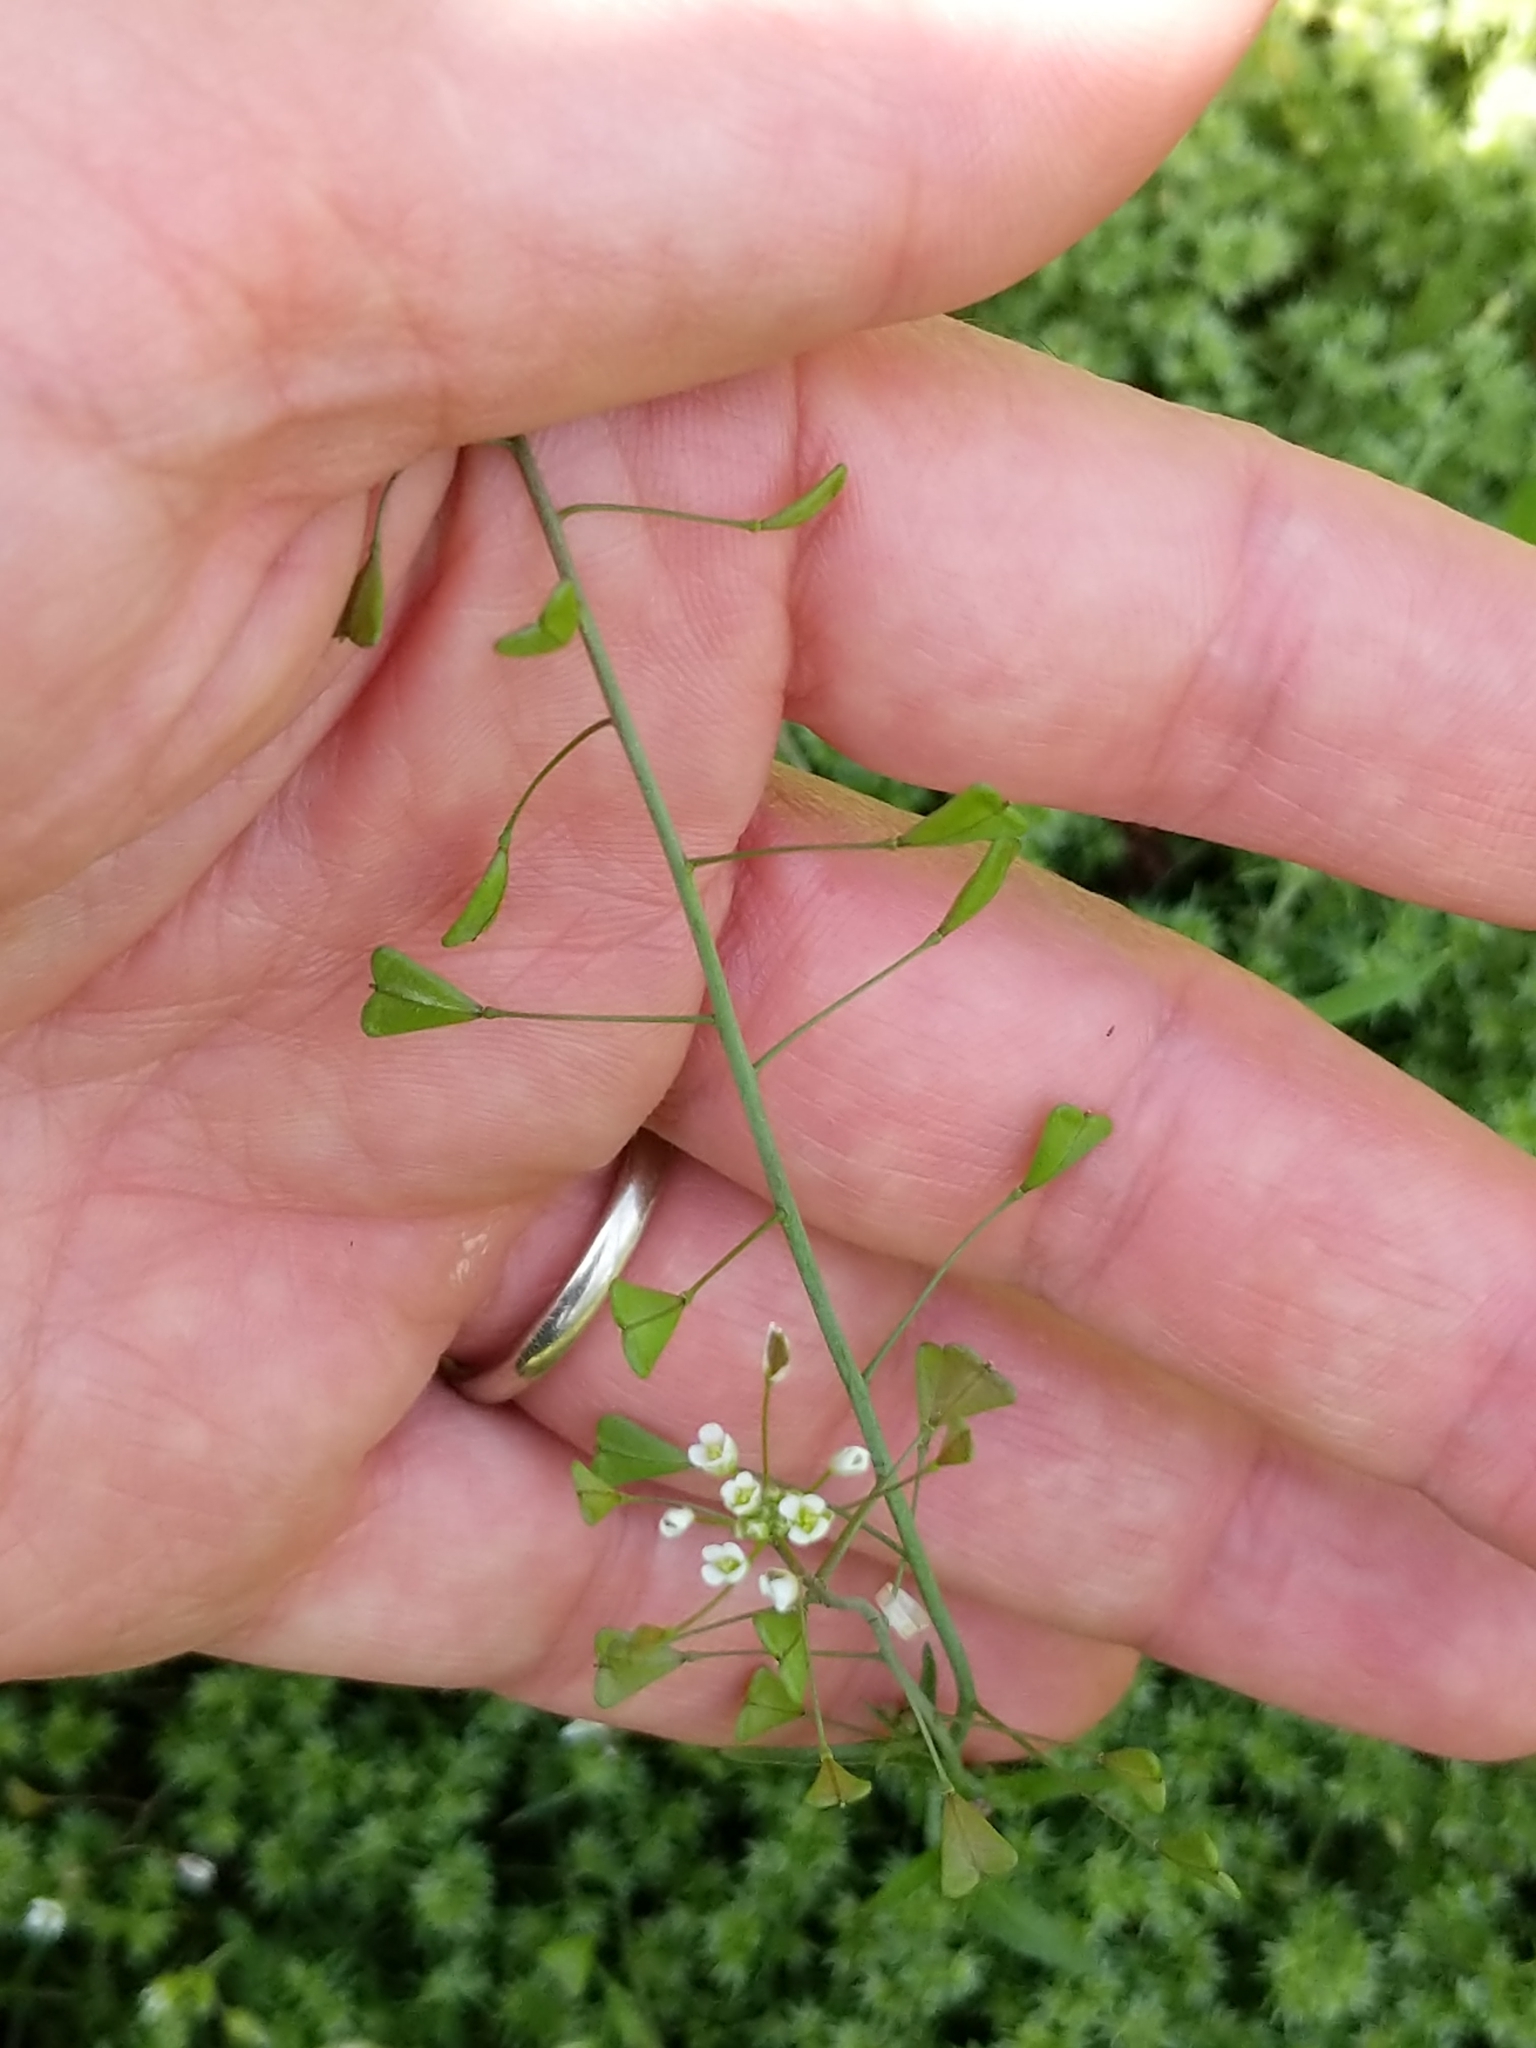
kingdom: Plantae
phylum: Tracheophyta
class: Magnoliopsida
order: Brassicales
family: Brassicaceae
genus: Capsella
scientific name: Capsella bursa-pastoris
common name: Shepherd's purse
